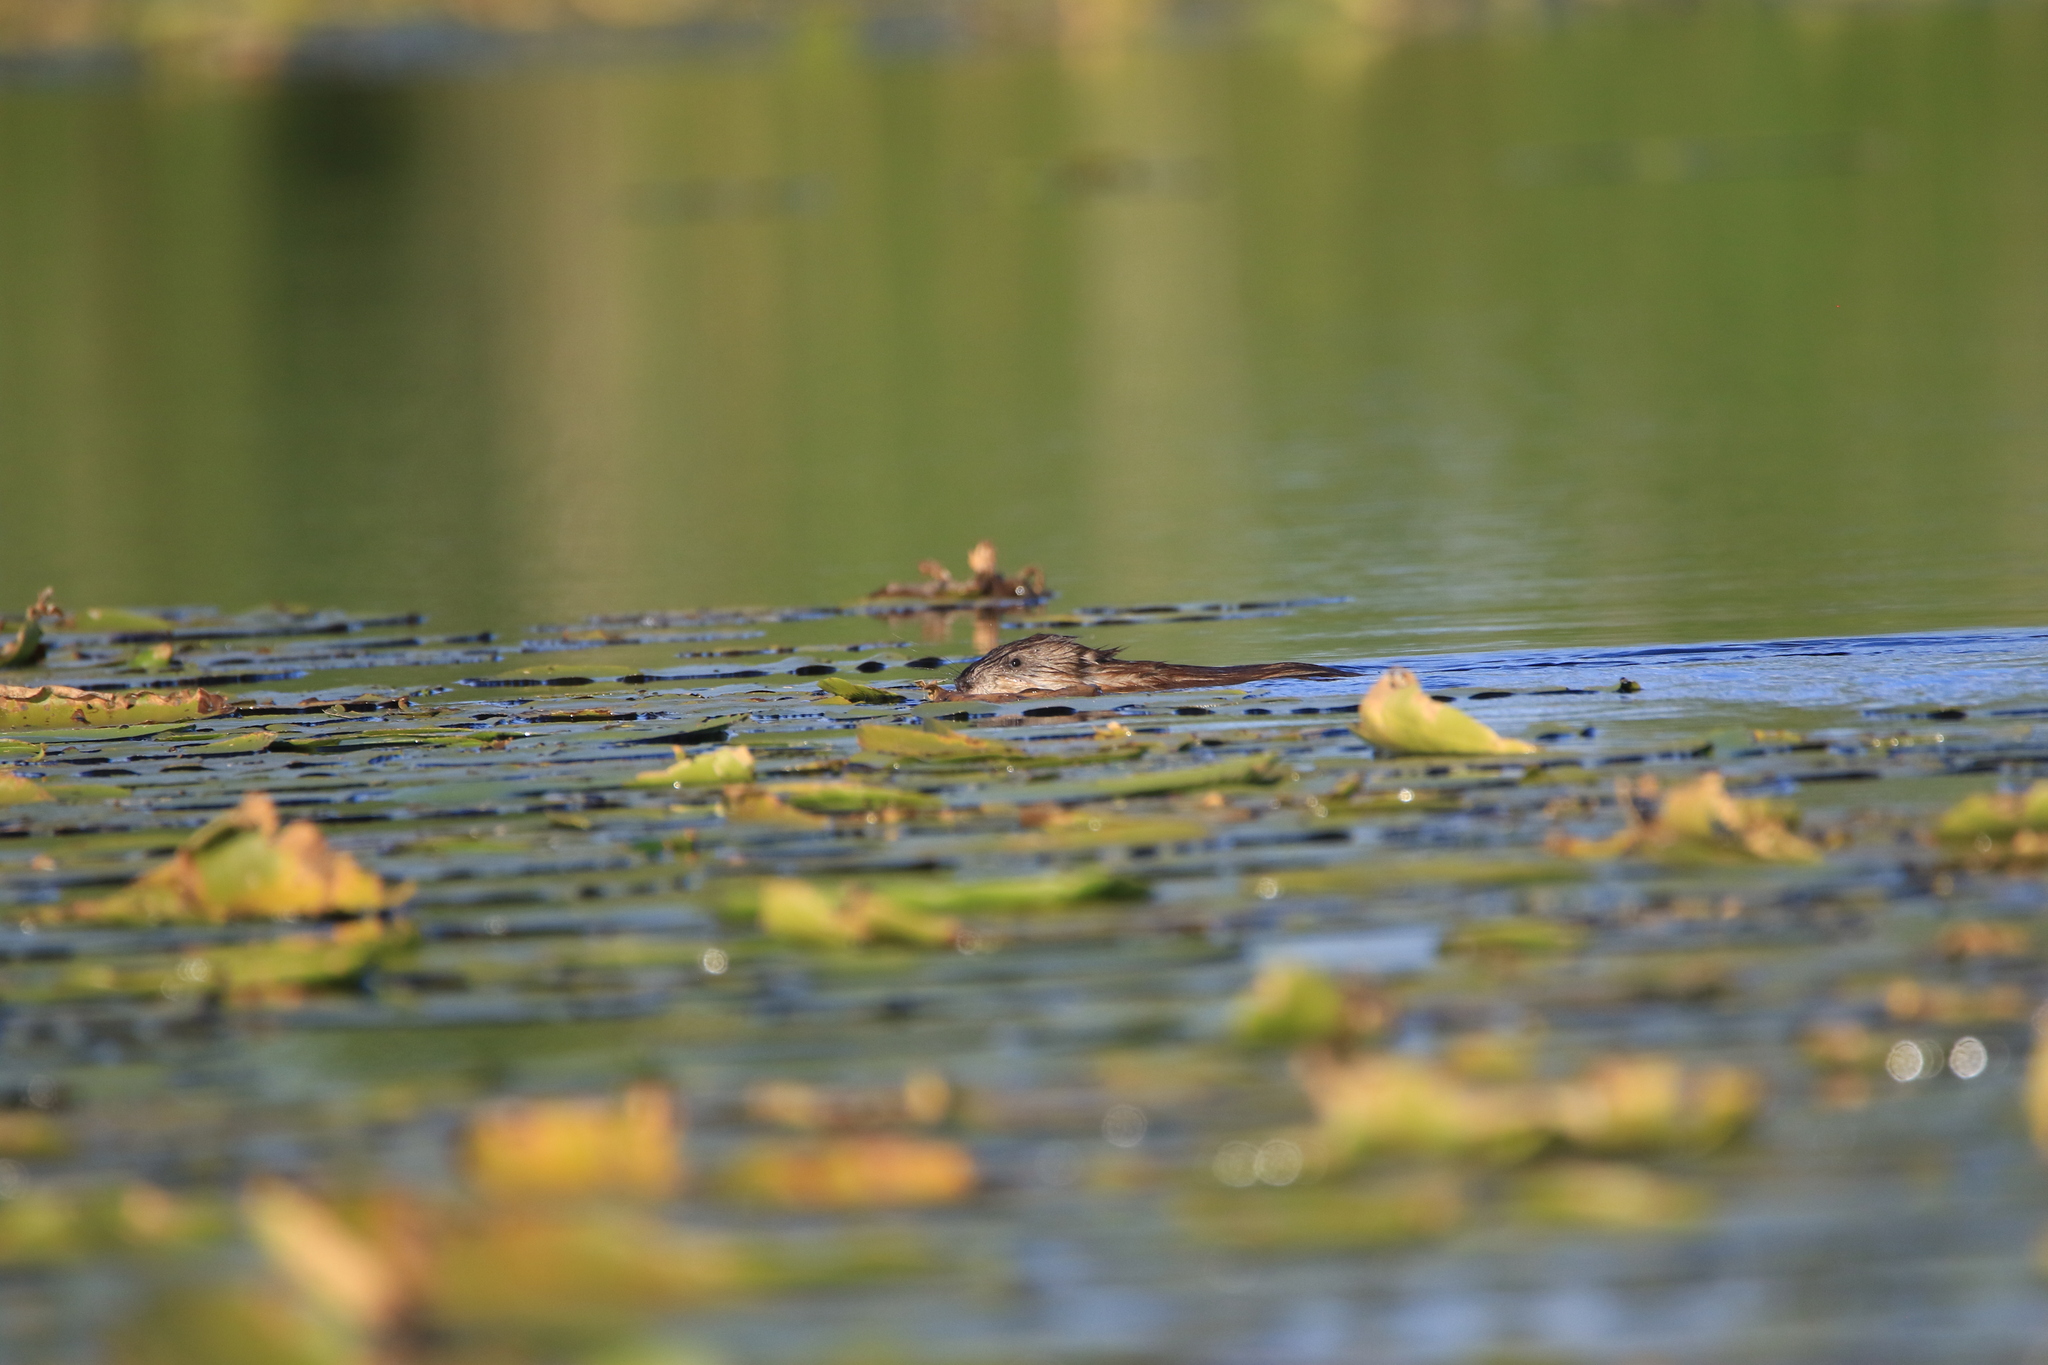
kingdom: Animalia
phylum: Chordata
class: Mammalia
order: Rodentia
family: Cricetidae
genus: Ondatra
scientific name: Ondatra zibethicus
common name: Muskrat
